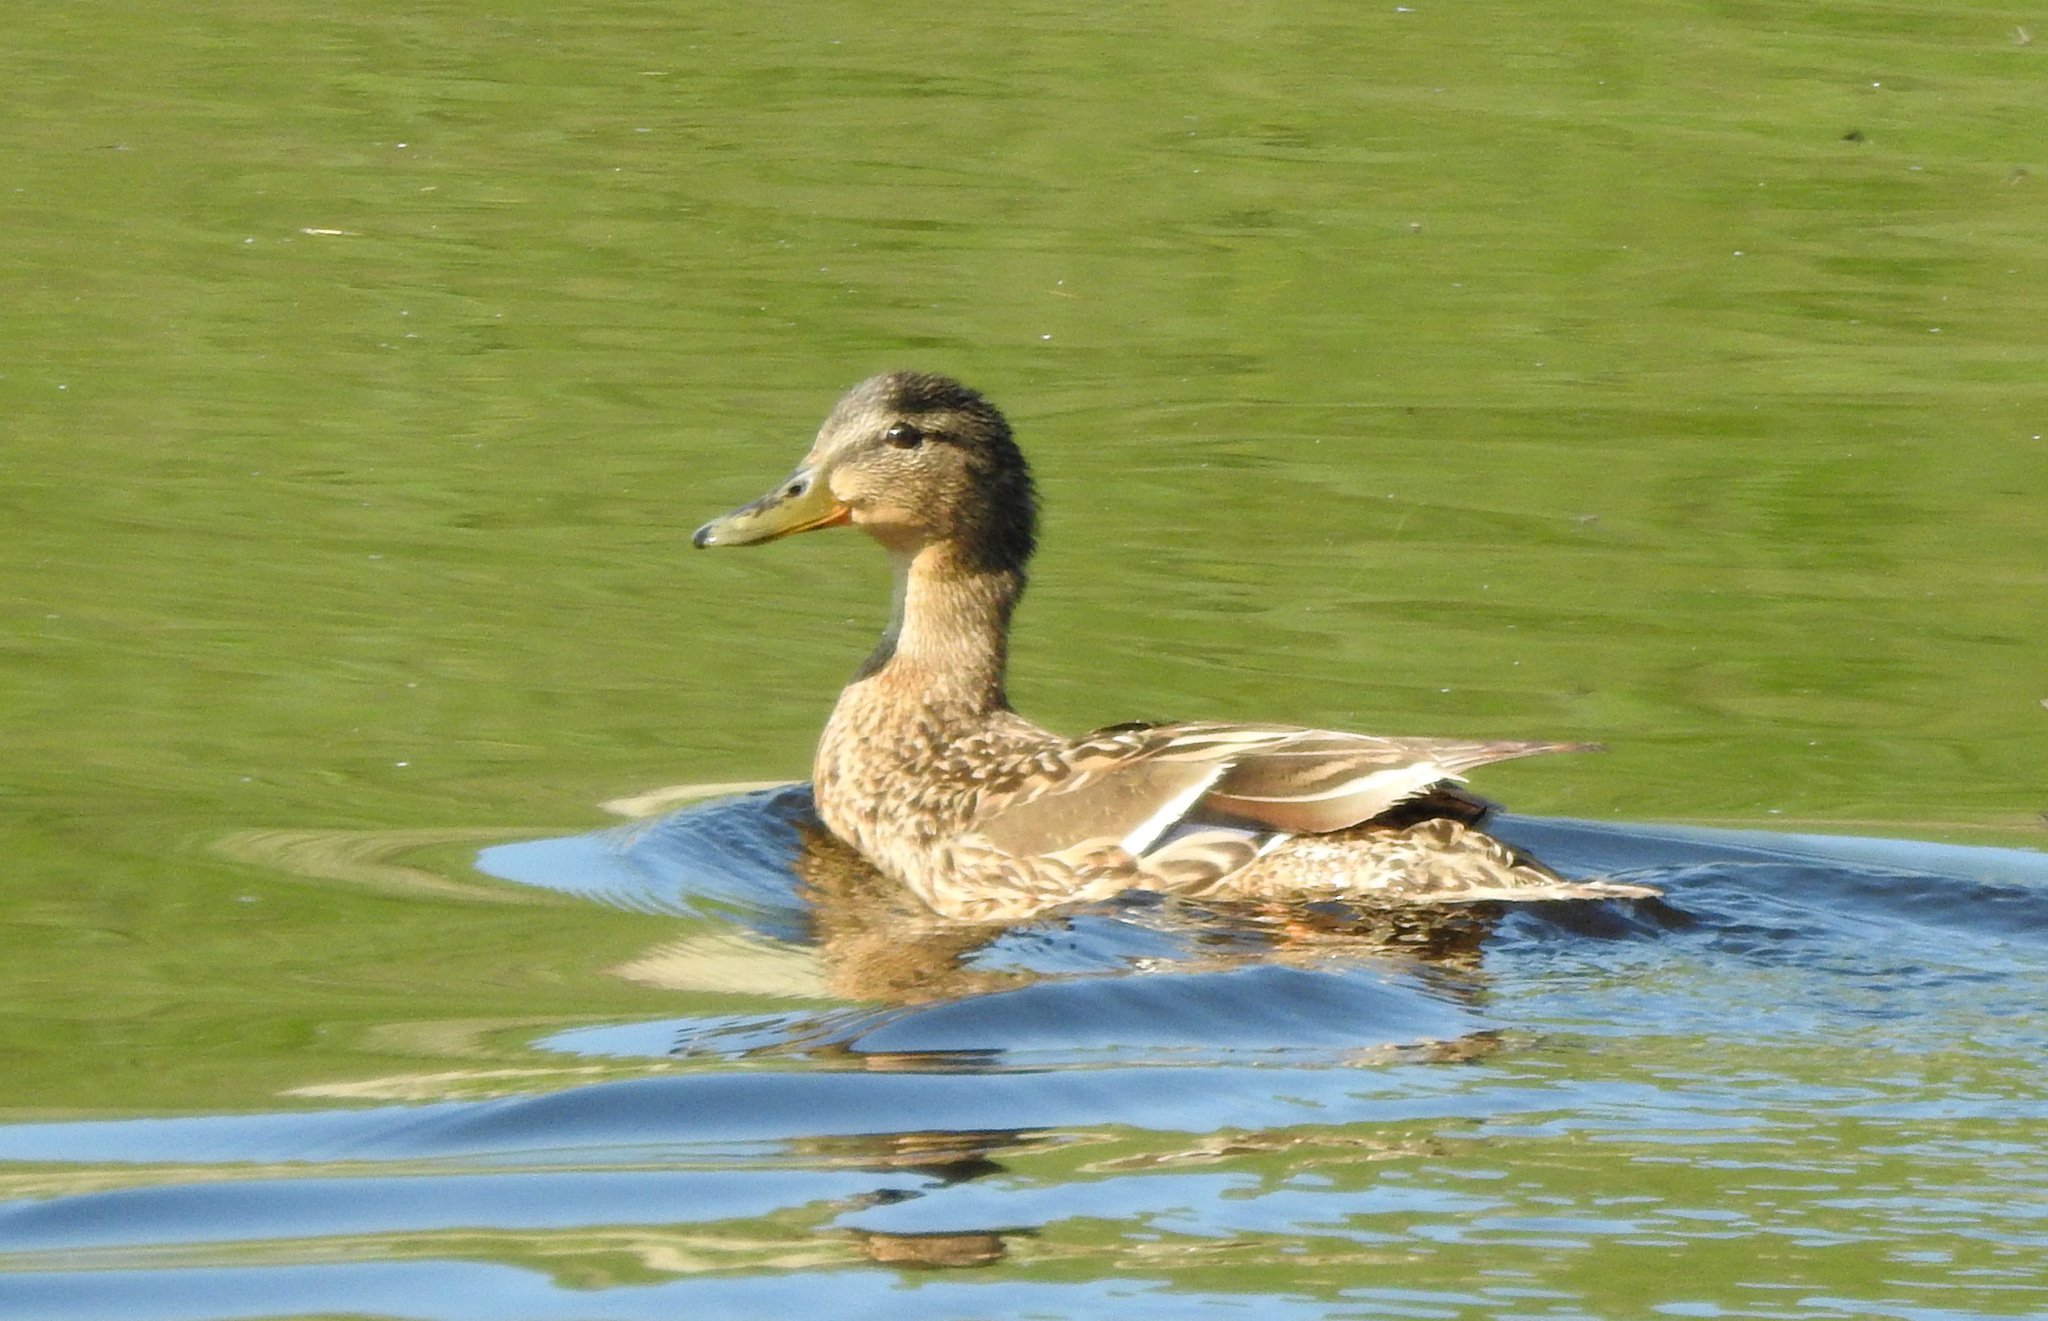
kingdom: Animalia
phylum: Chordata
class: Aves
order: Anseriformes
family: Anatidae
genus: Anas
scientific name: Anas platyrhynchos
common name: Mallard
